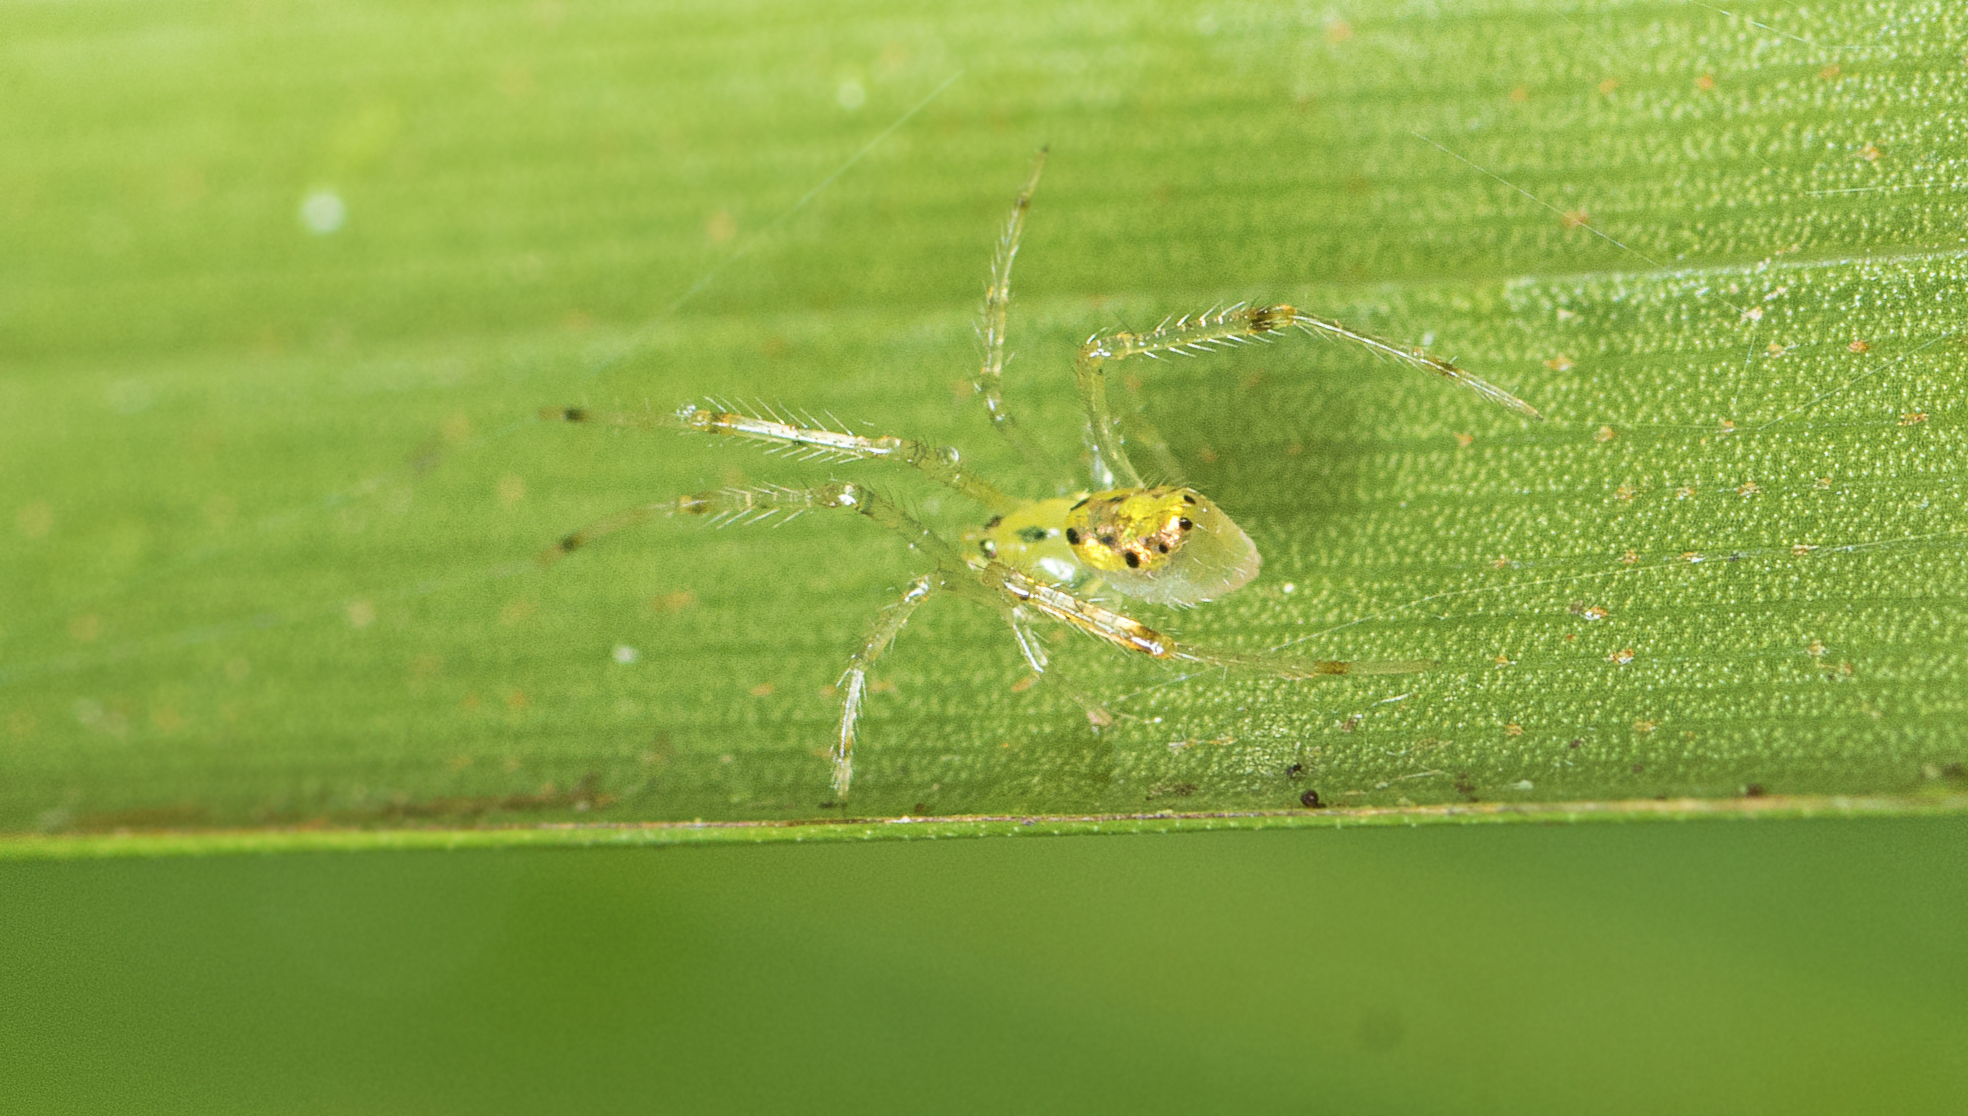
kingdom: Animalia
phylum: Arthropoda
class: Arachnida
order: Araneae
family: Theridiidae
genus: Thwaitesia
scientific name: Thwaitesia nigronodosa
